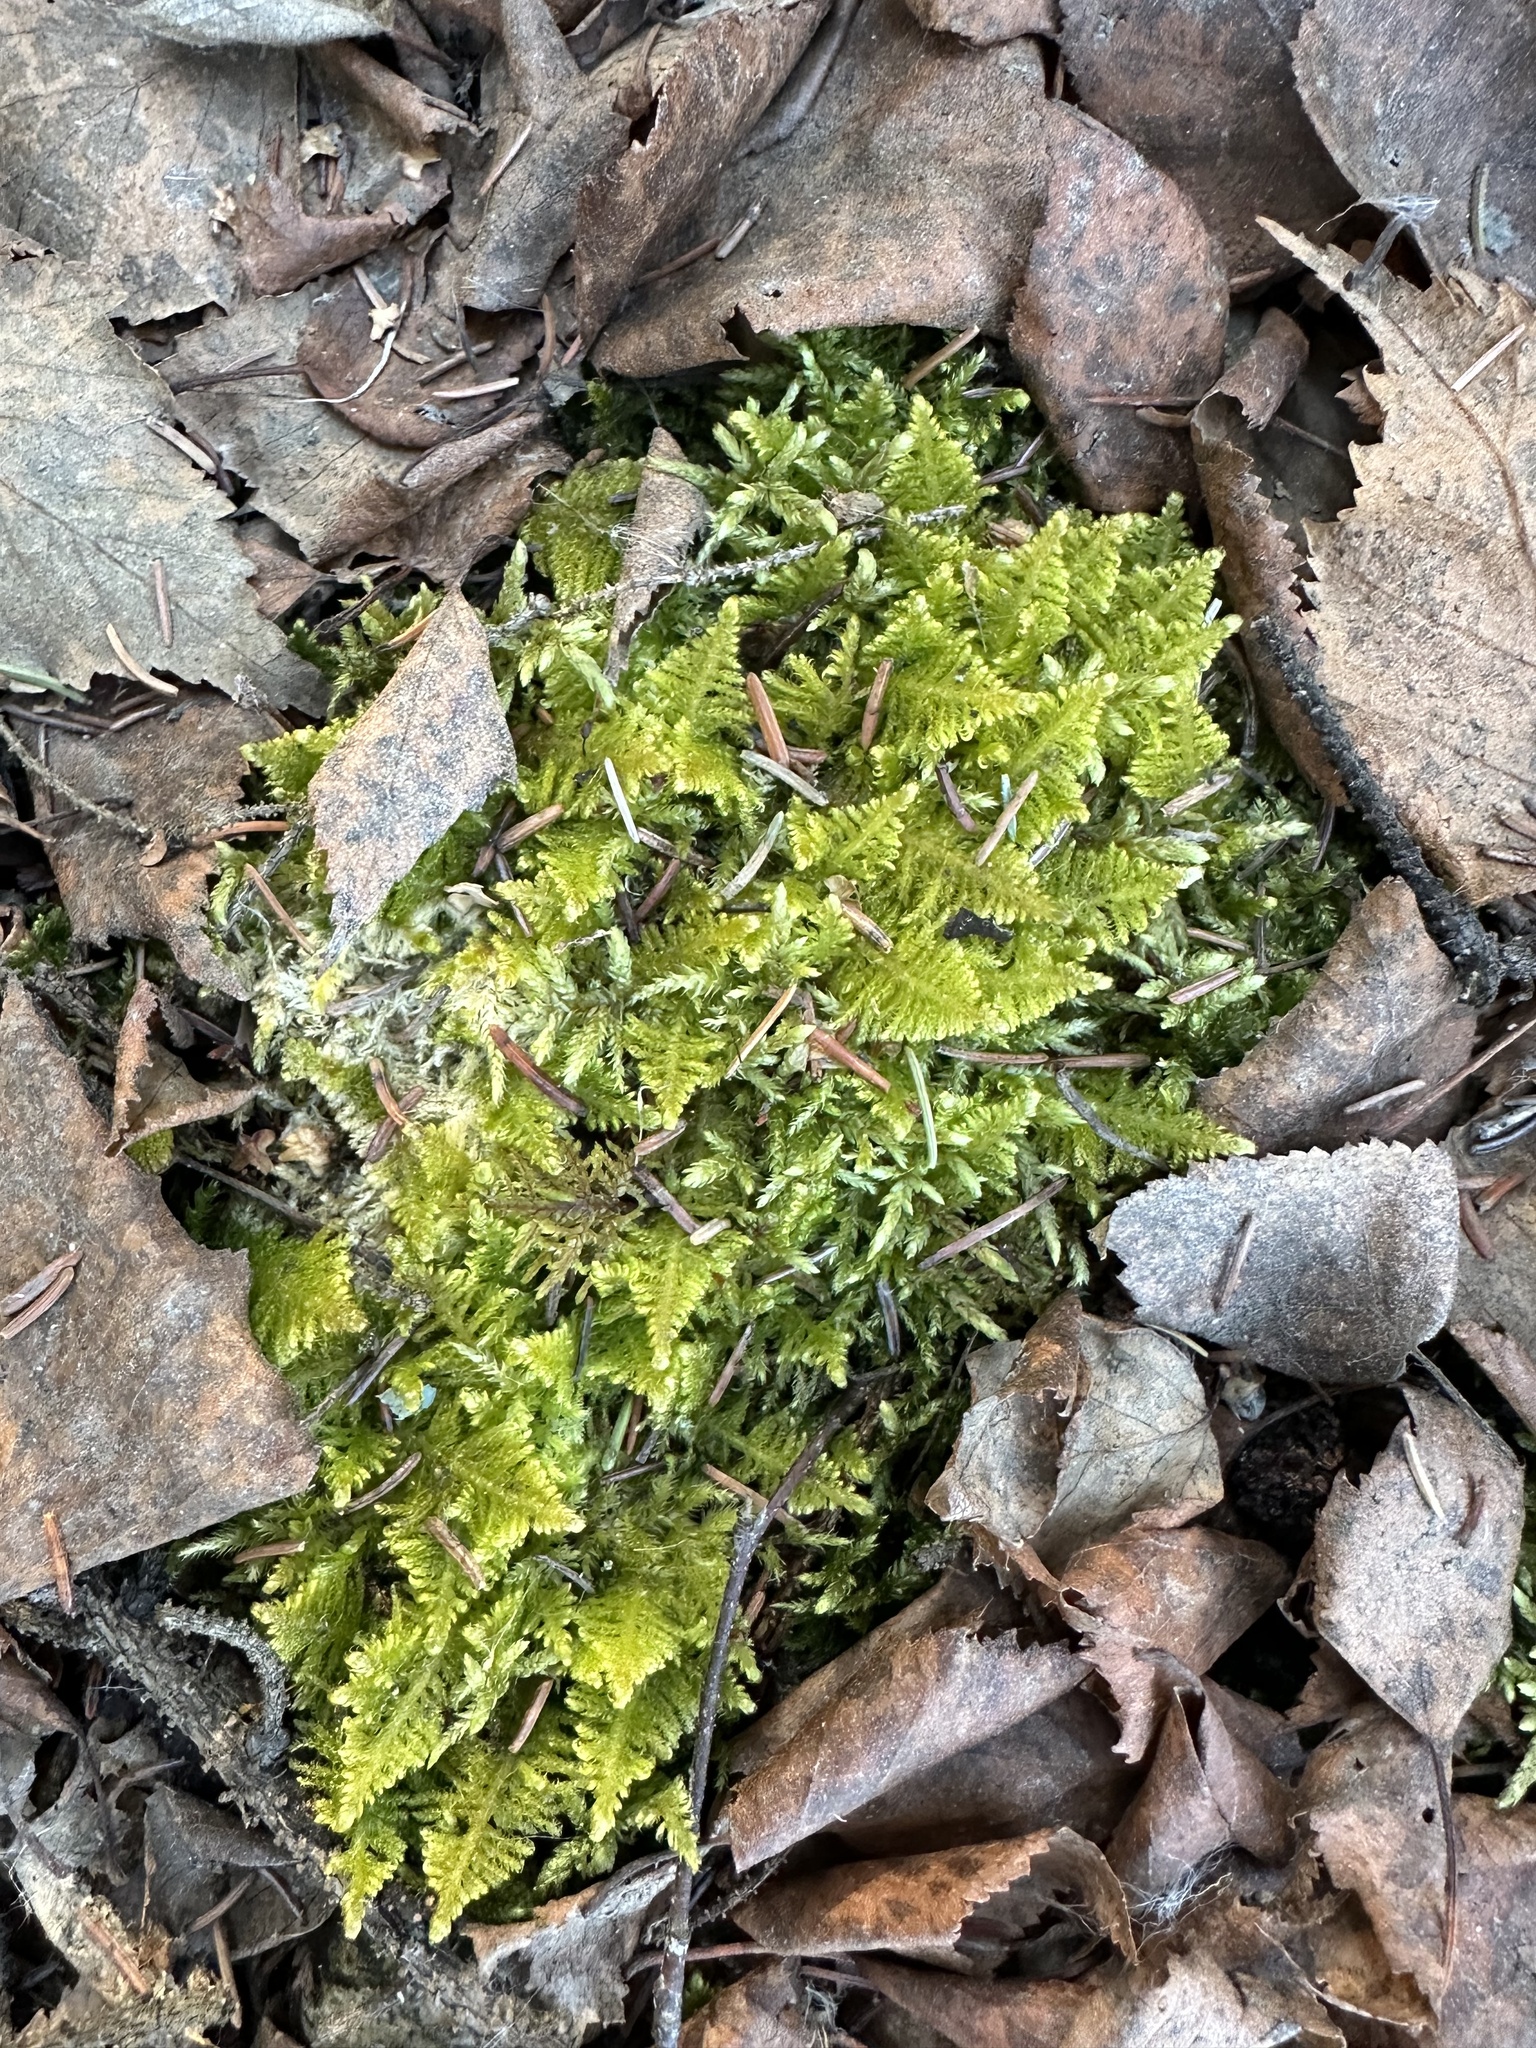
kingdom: Plantae
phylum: Bryophyta
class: Bryopsida
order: Hypnales
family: Pylaisiaceae
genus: Ptilium
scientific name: Ptilium crista-castrensis
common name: Knight's plume moss
